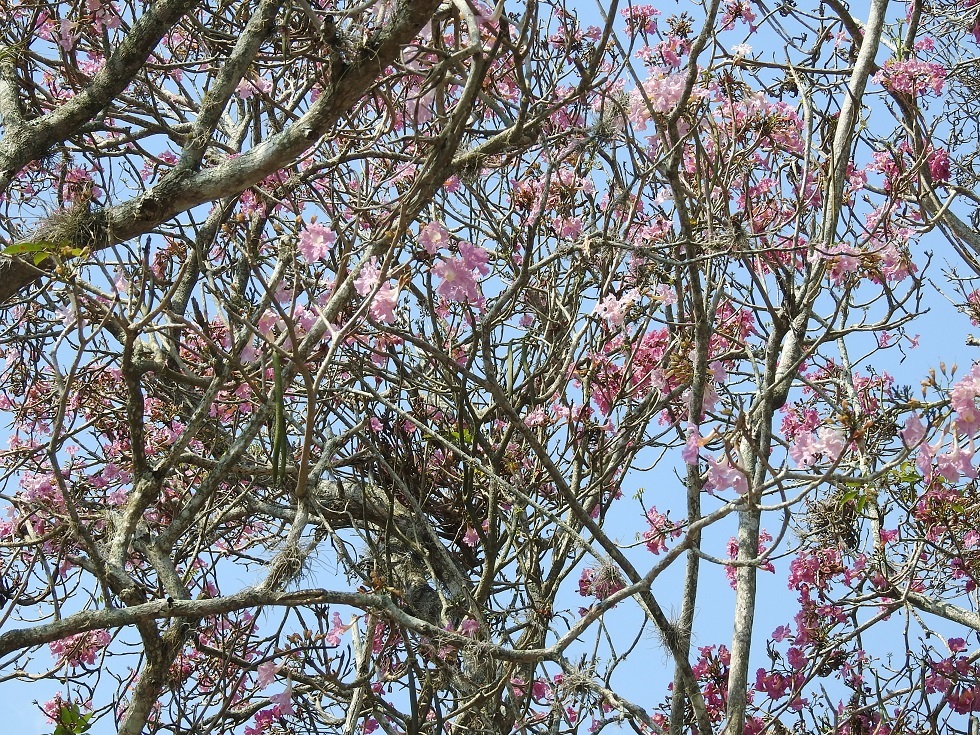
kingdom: Plantae
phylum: Tracheophyta
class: Magnoliopsida
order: Lamiales
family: Bignoniaceae
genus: Tabebuia
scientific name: Tabebuia rosea
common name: Pink poui
